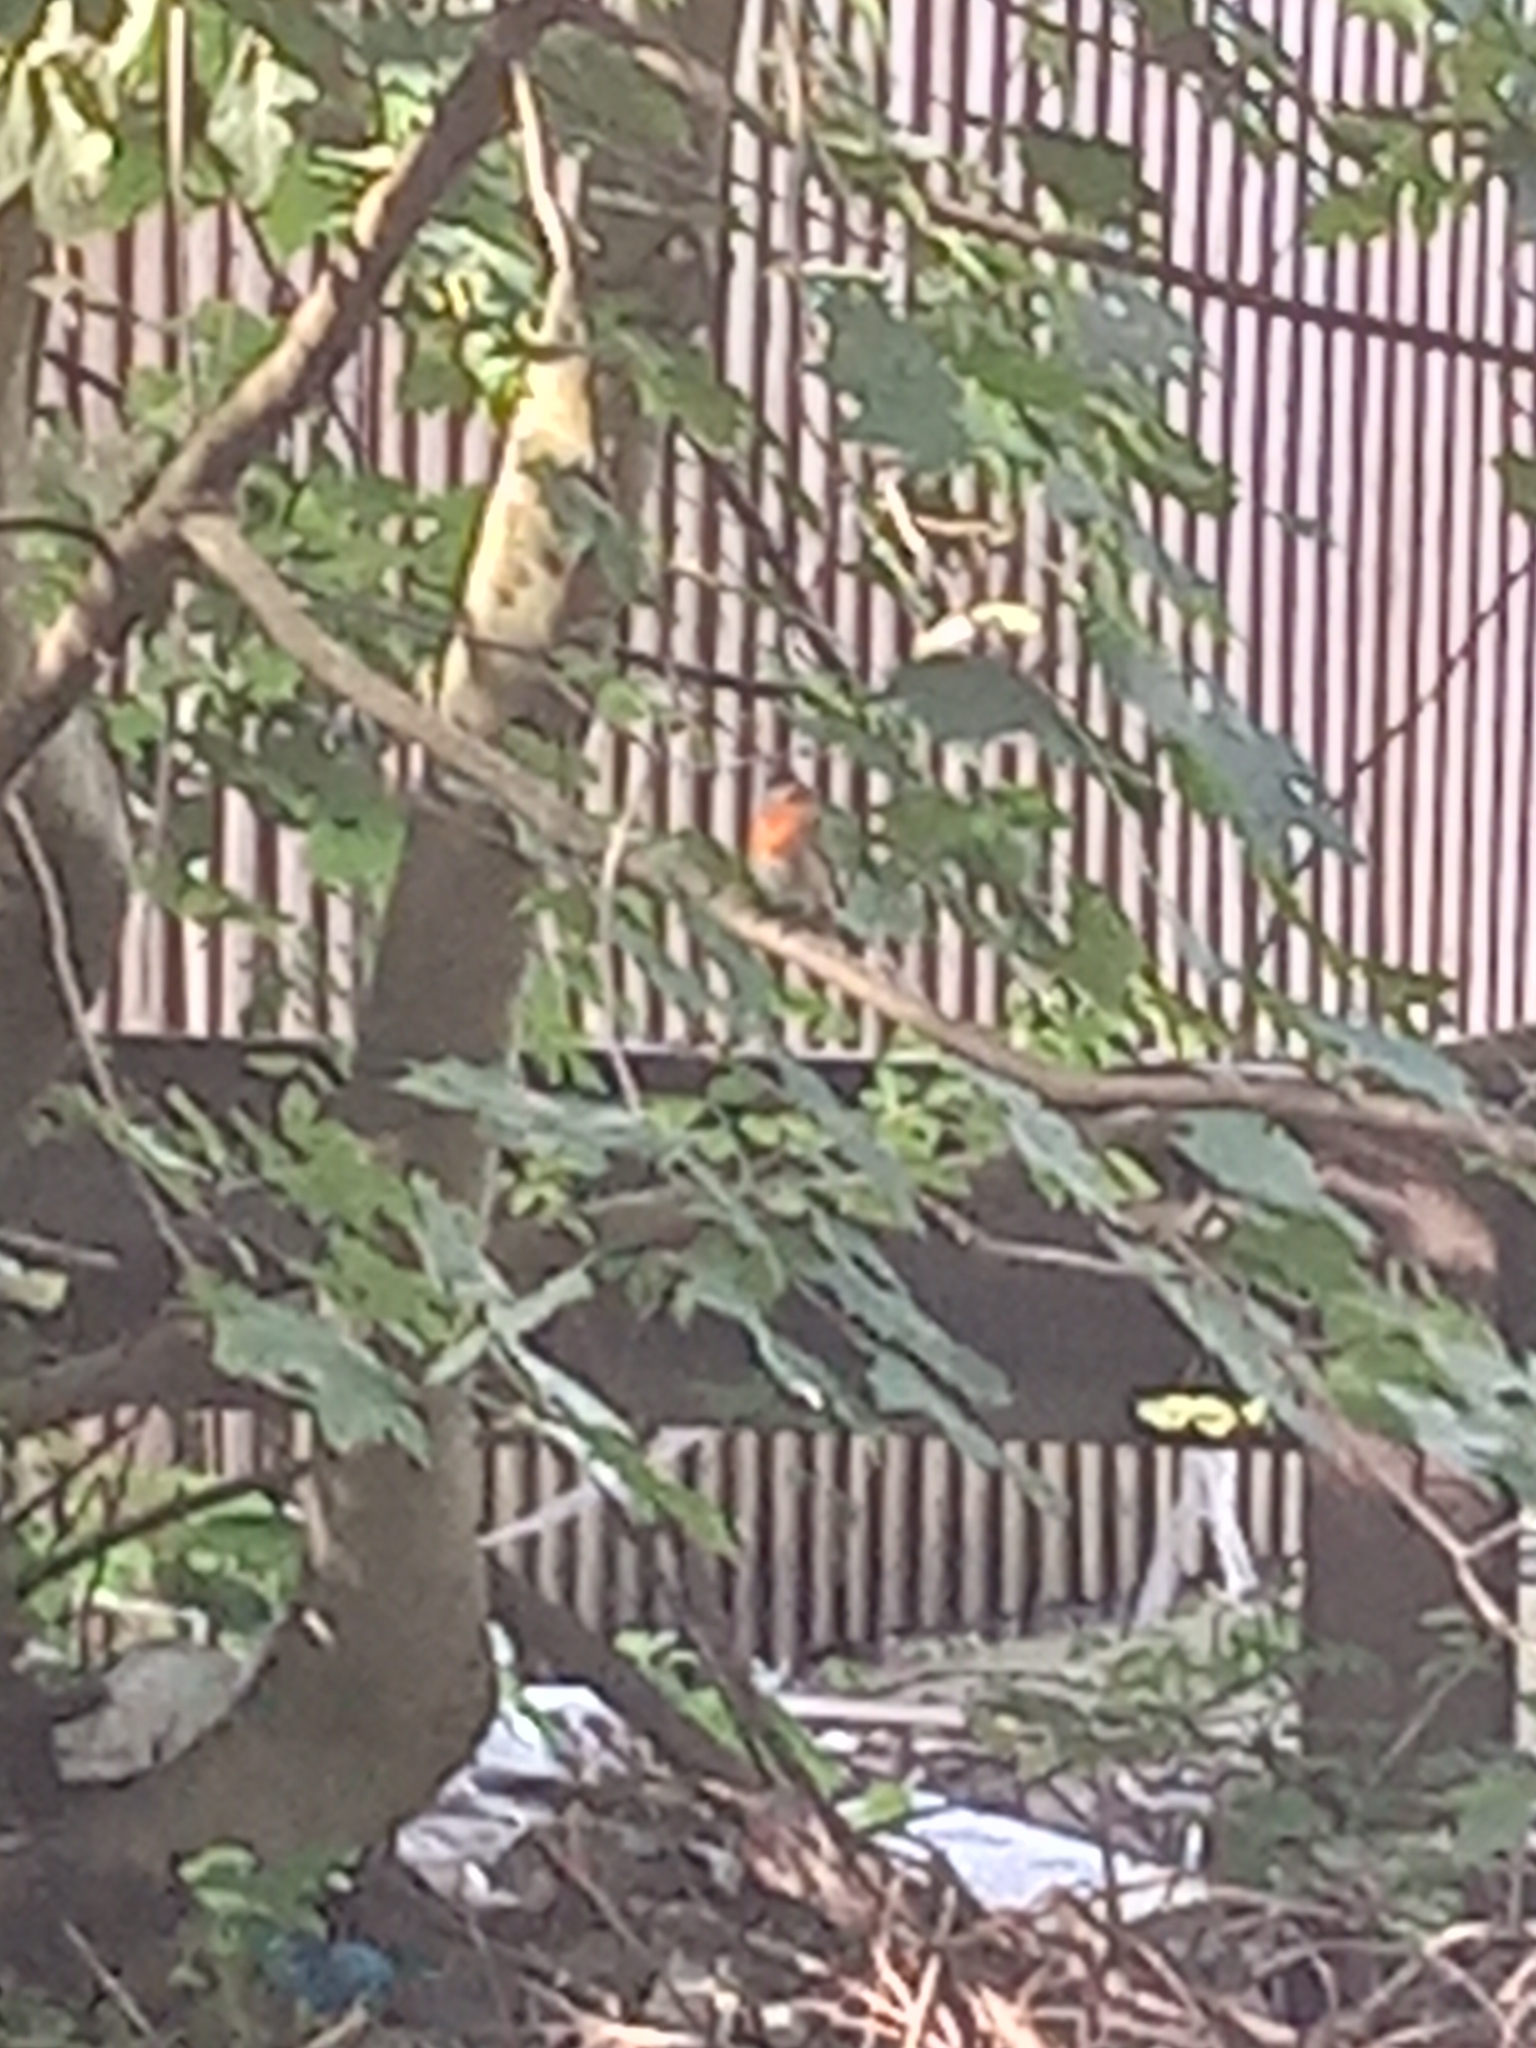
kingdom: Animalia
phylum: Chordata
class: Aves
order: Passeriformes
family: Muscicapidae
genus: Erithacus
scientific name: Erithacus rubecula
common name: European robin
